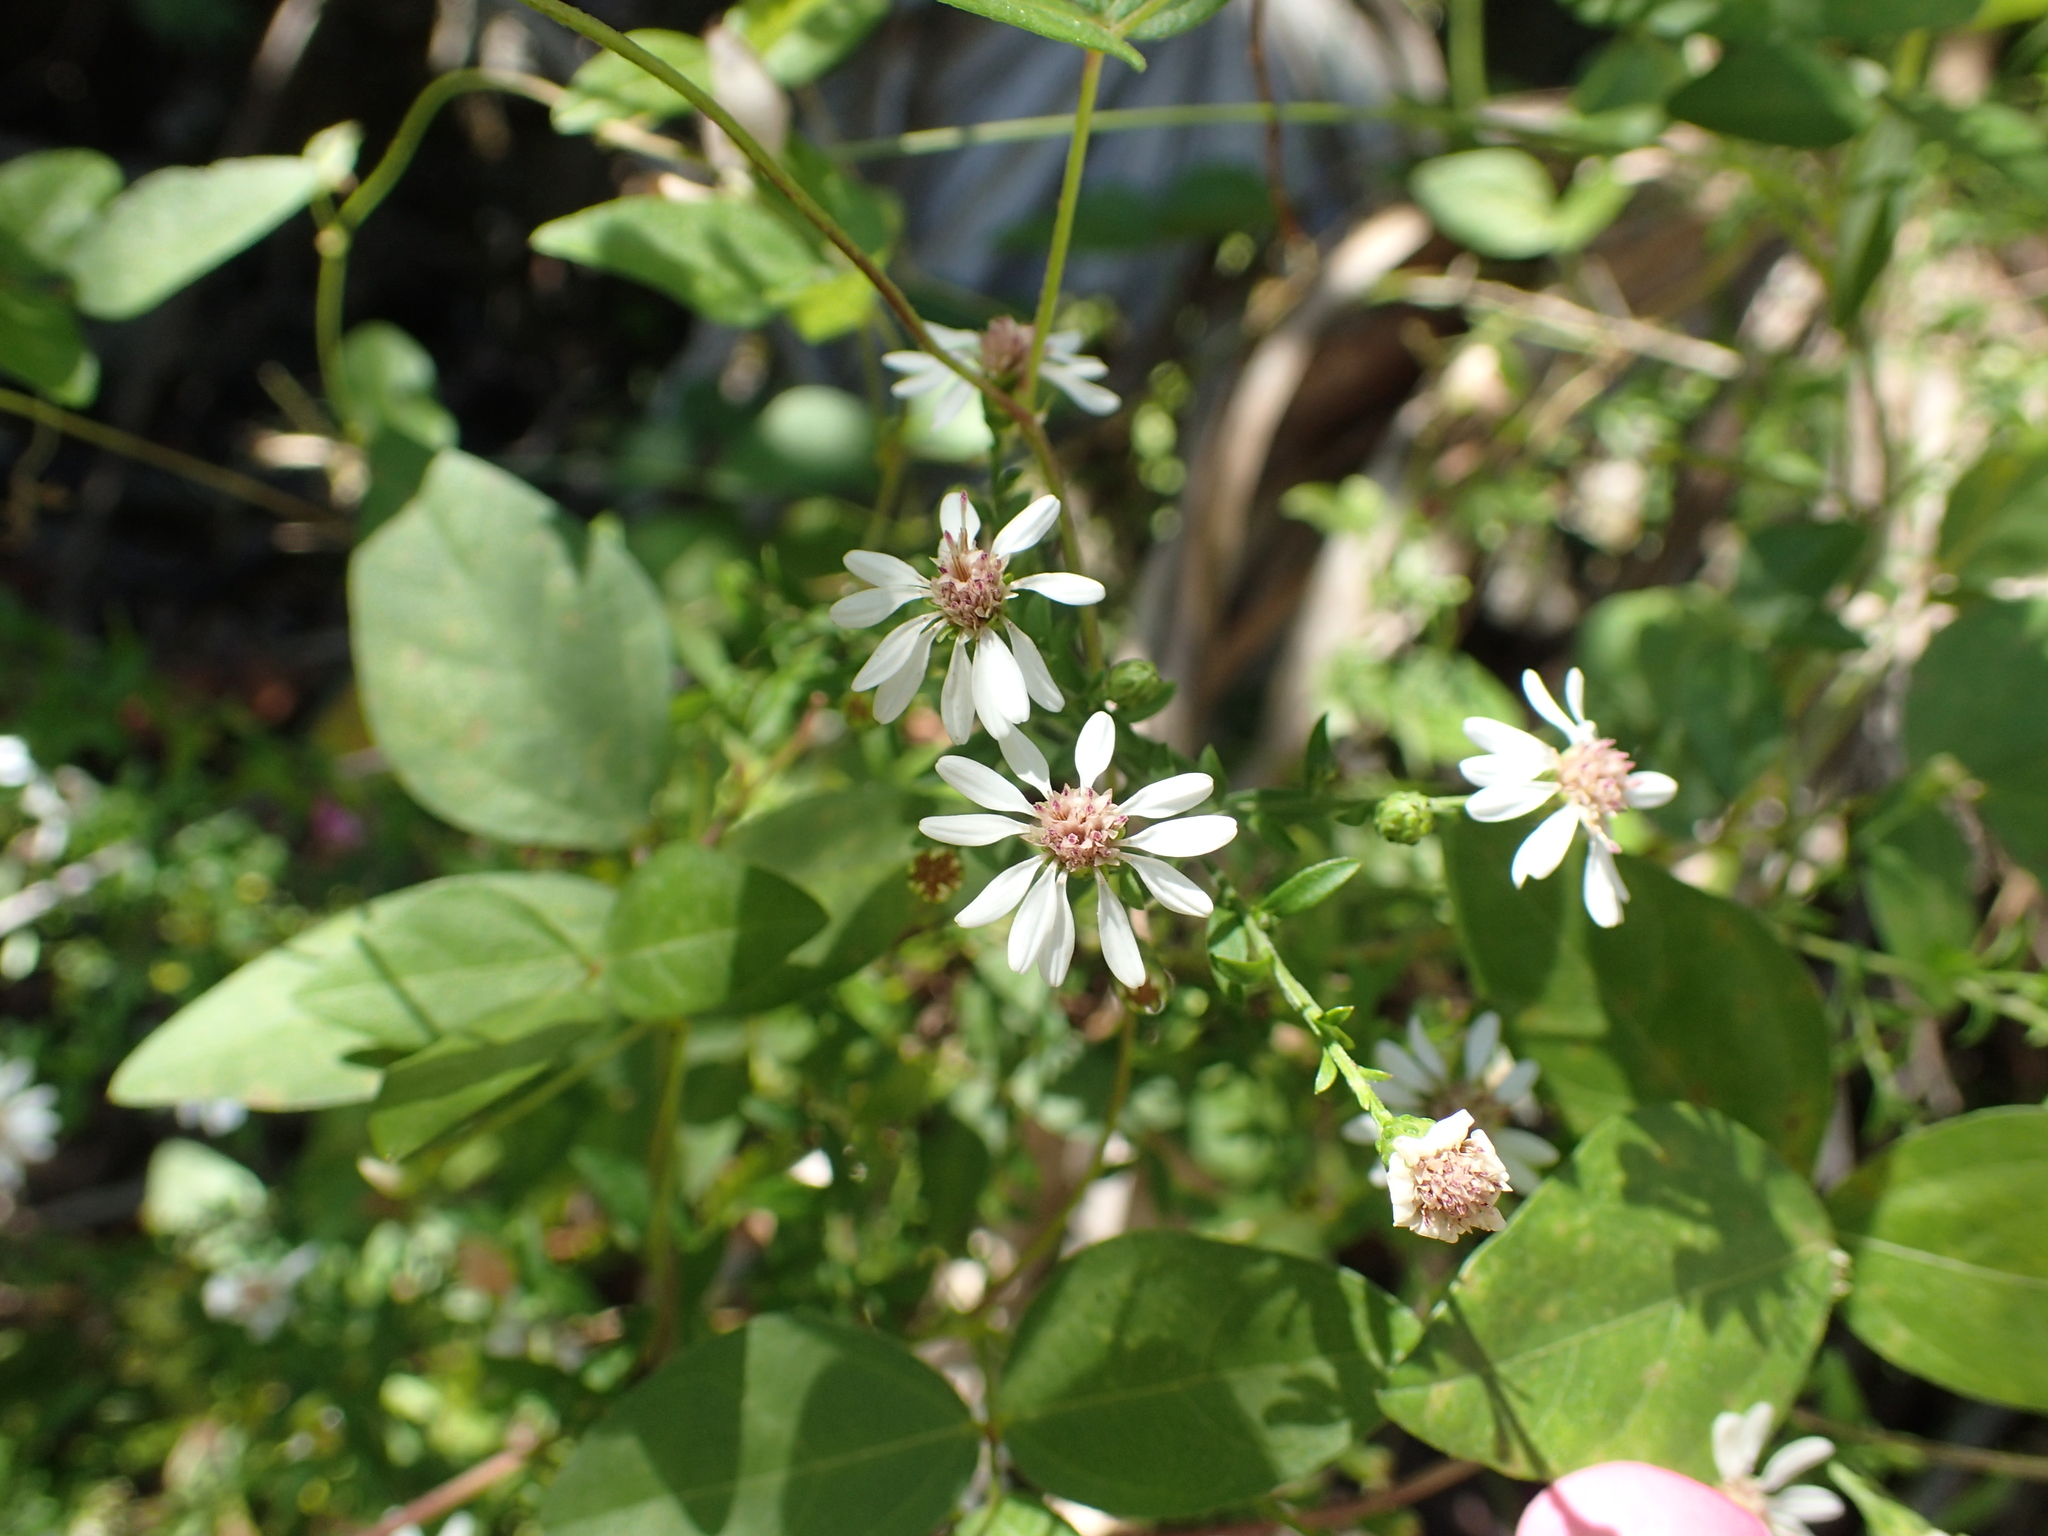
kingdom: Plantae
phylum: Tracheophyta
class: Magnoliopsida
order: Asterales
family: Asteraceae
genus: Symphyotrichum
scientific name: Symphyotrichum lateriflorum
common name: Calico aster
